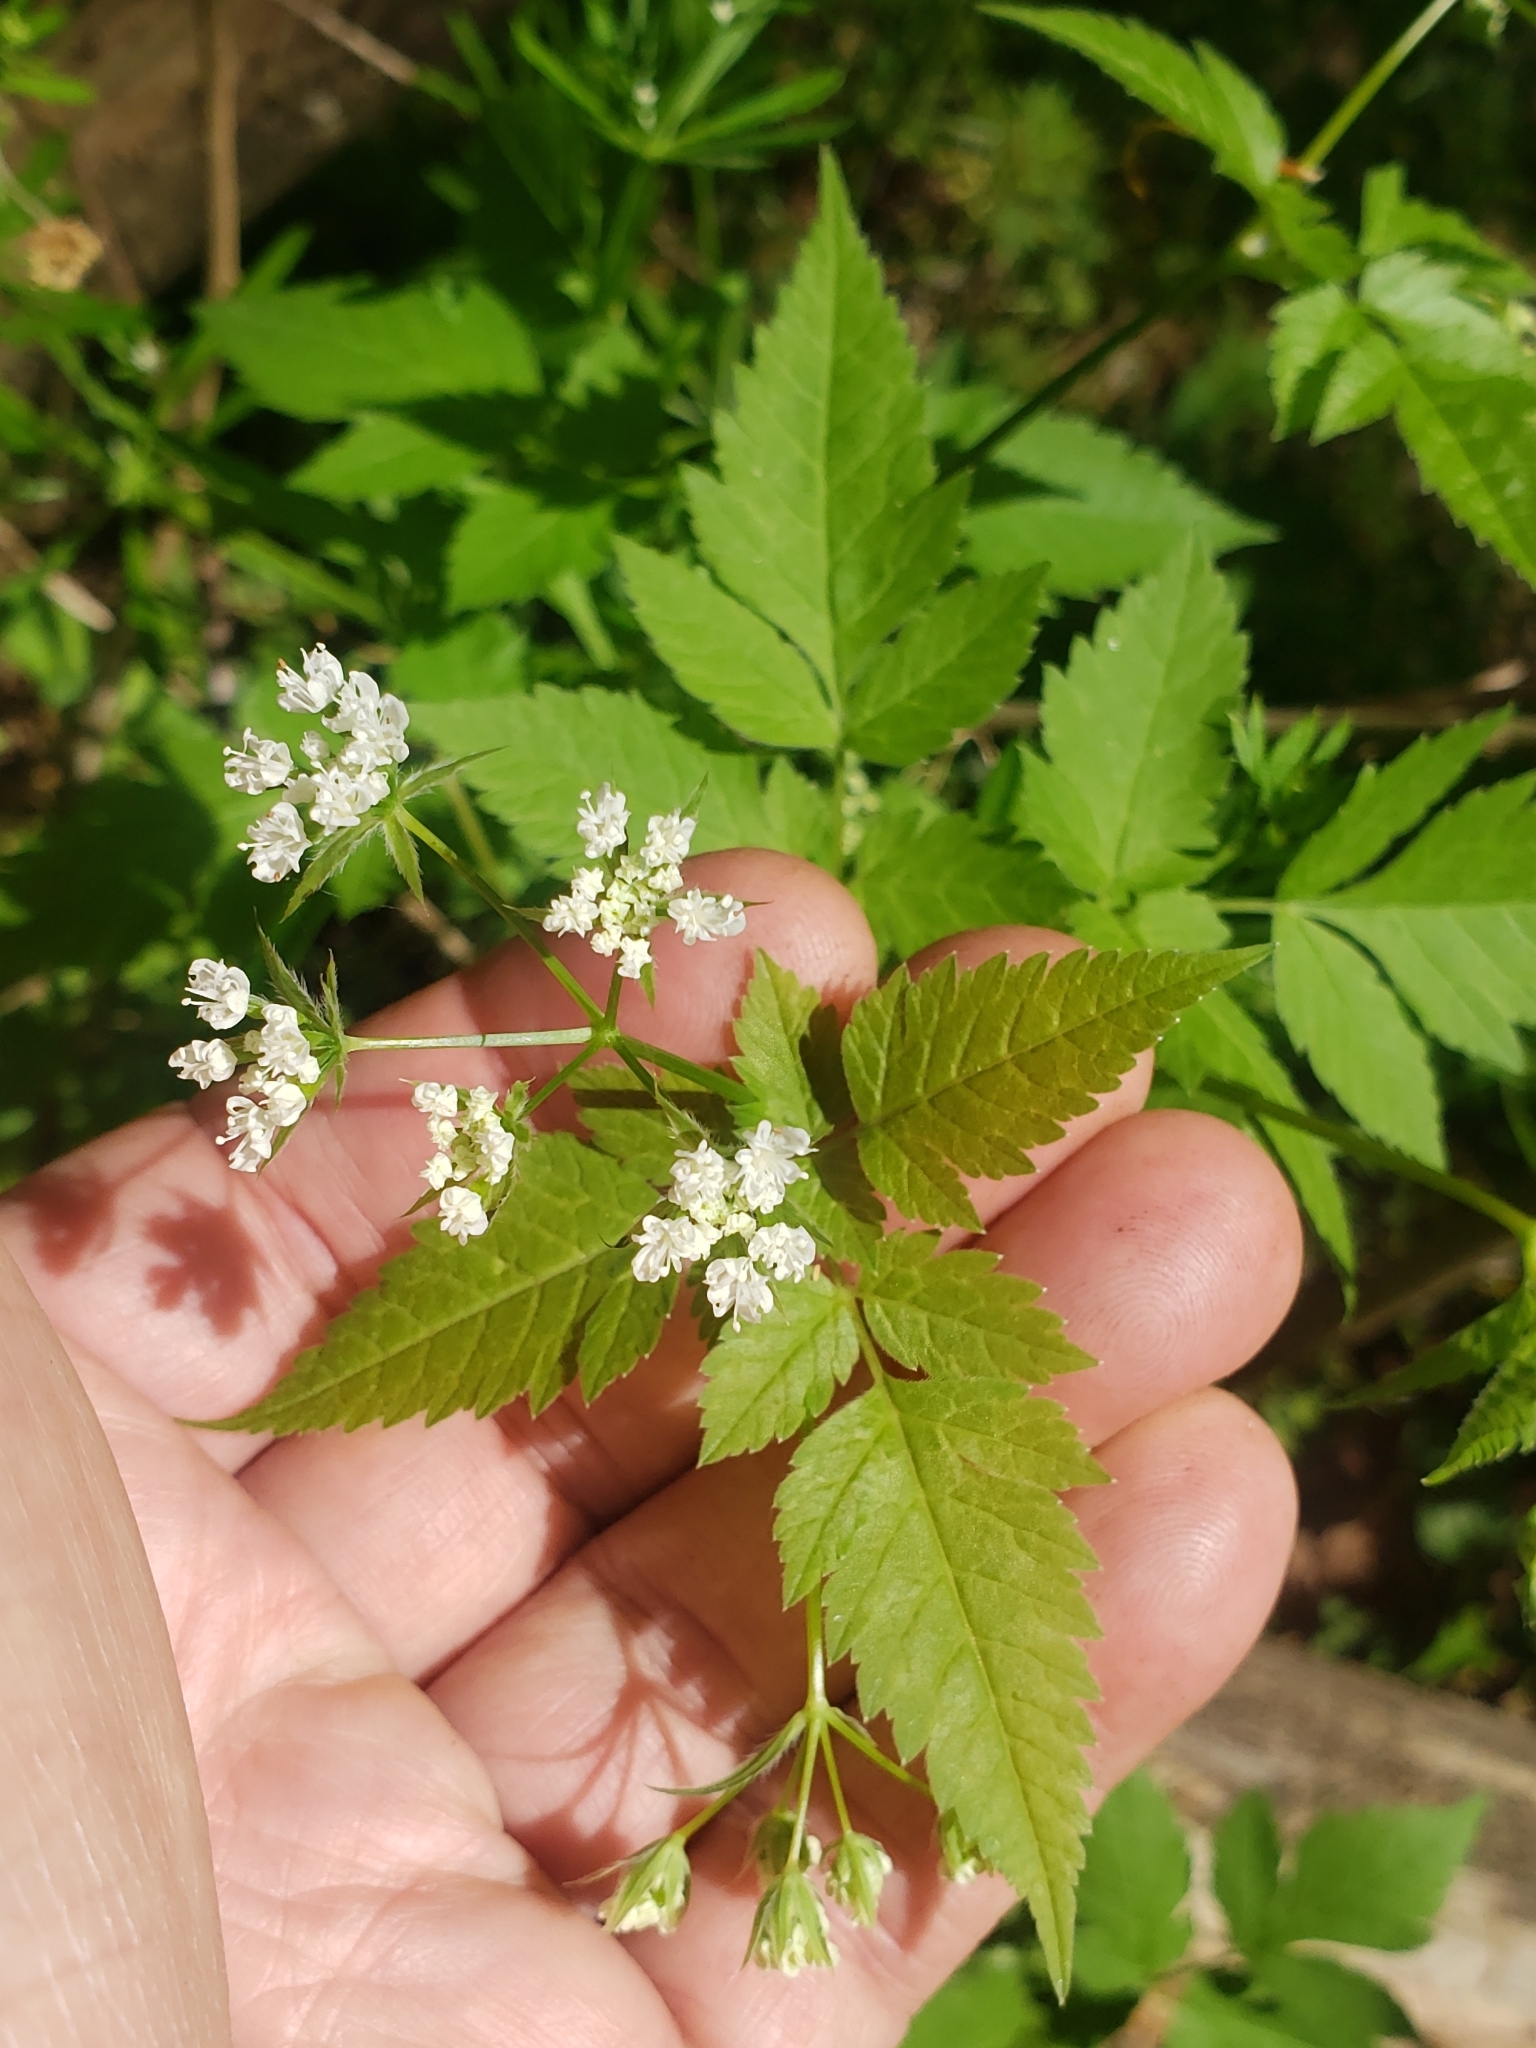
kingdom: Plantae
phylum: Tracheophyta
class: Magnoliopsida
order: Apiales
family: Apiaceae
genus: Osmorhiza
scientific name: Osmorhiza longistylis
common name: Smooth sweet cicely
